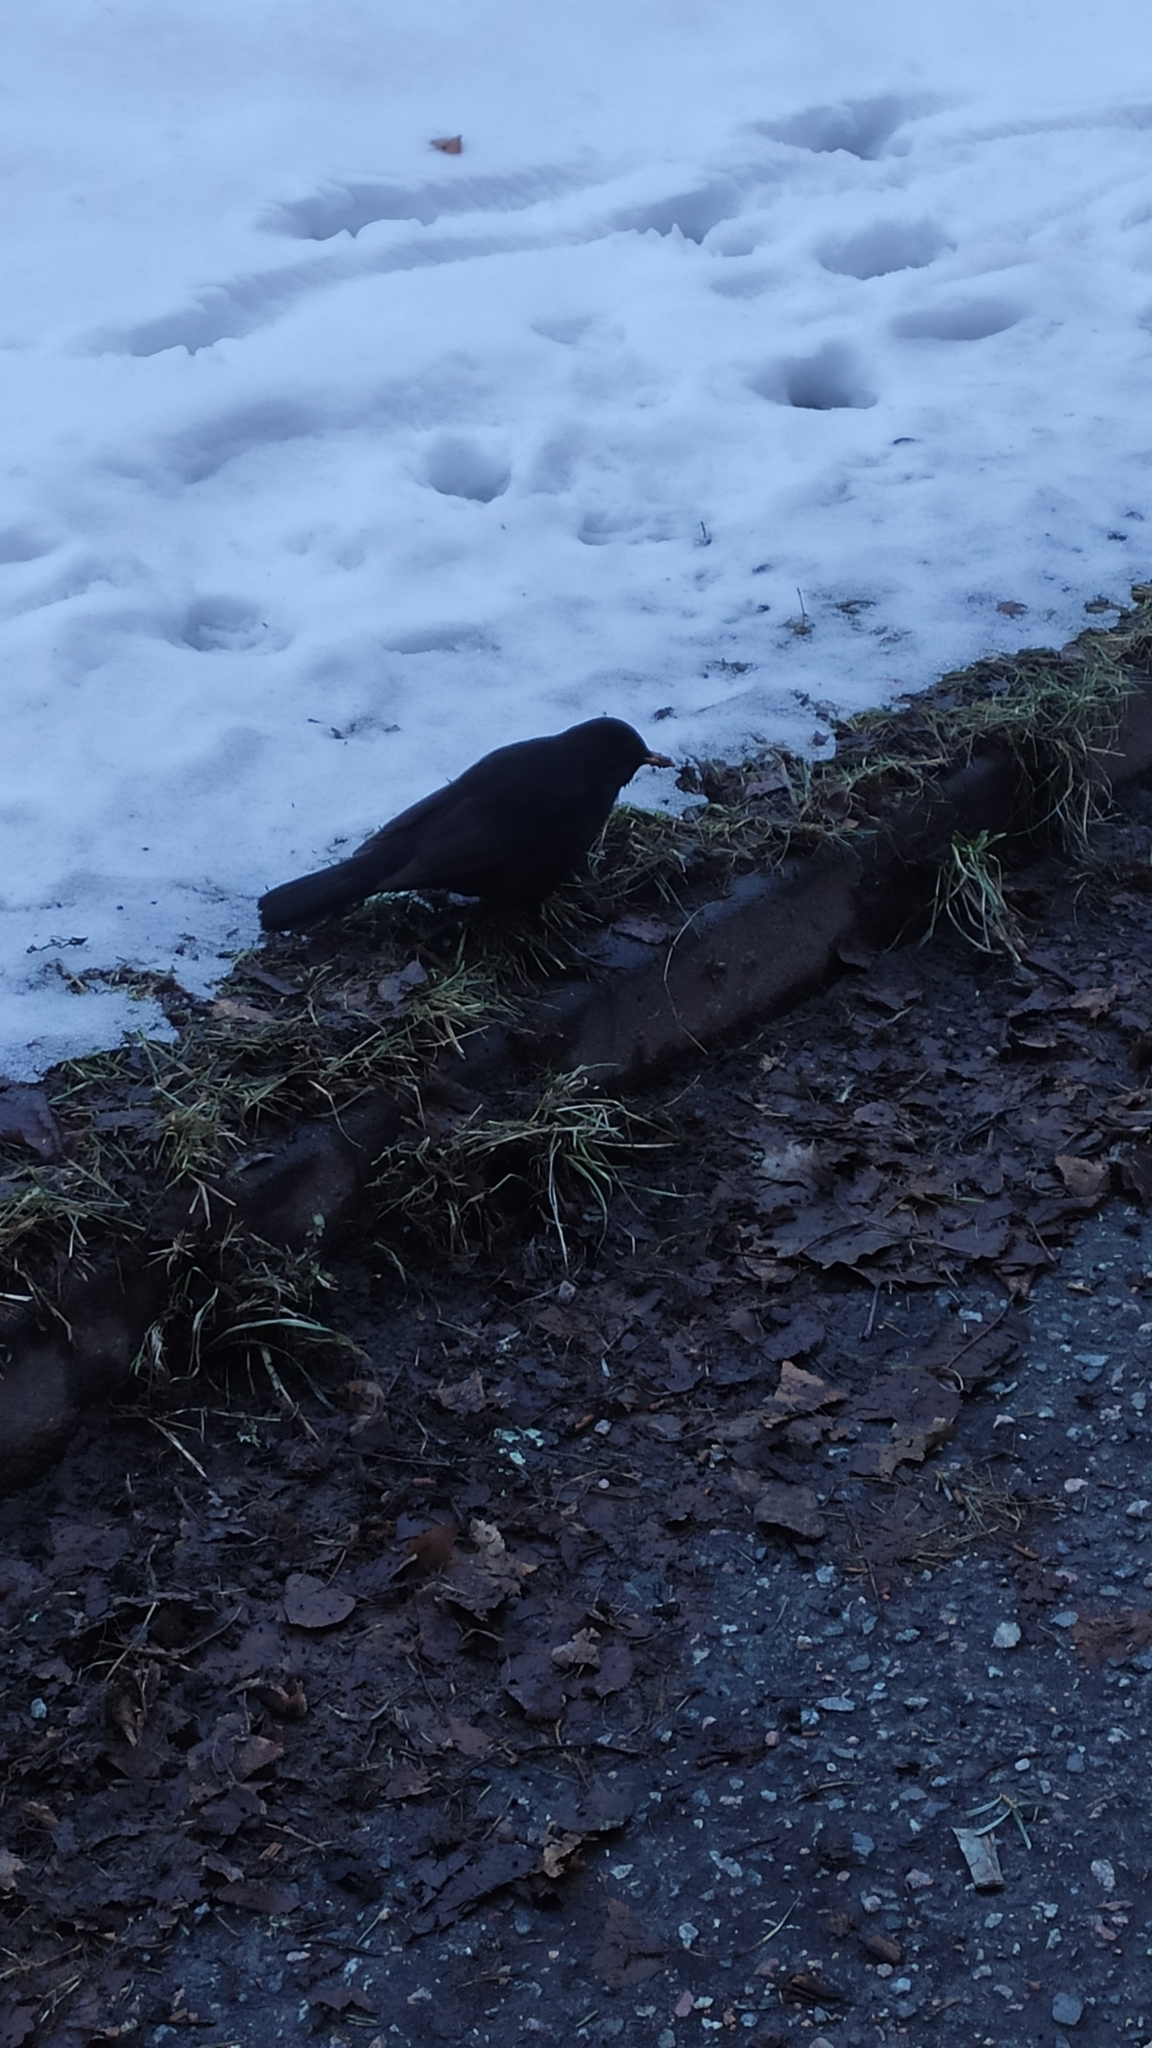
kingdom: Animalia
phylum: Chordata
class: Aves
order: Passeriformes
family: Turdidae
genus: Turdus
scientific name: Turdus merula
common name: Common blackbird
